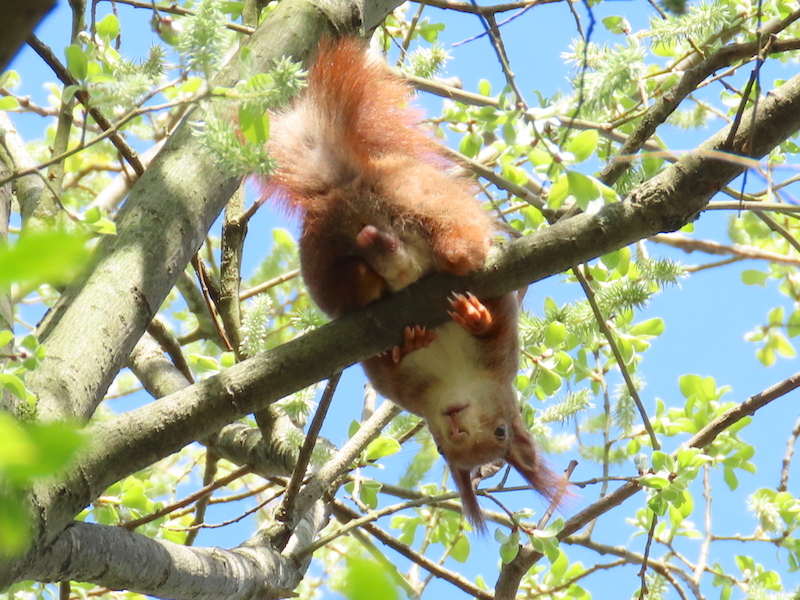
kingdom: Animalia
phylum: Chordata
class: Mammalia
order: Rodentia
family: Sciuridae
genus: Sciurus
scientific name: Sciurus vulgaris
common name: Eurasian red squirrel
